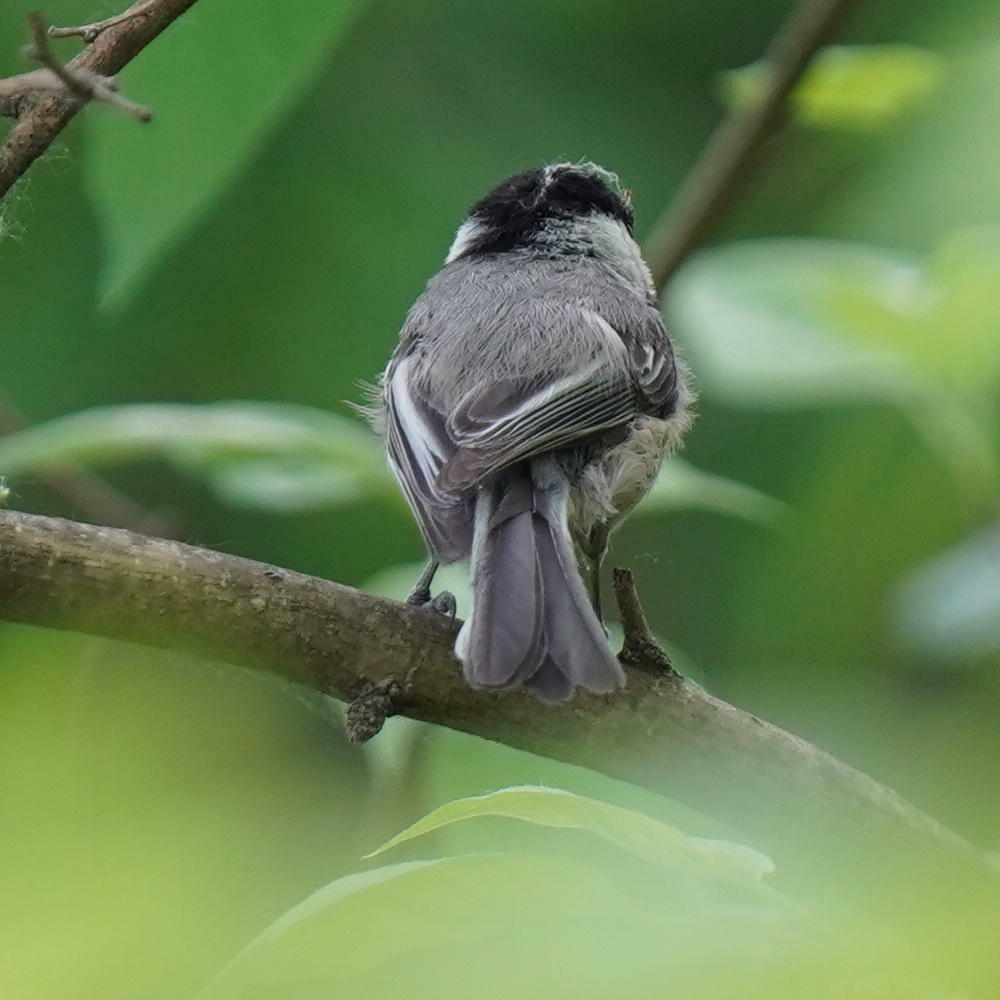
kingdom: Animalia
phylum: Chordata
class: Aves
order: Passeriformes
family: Paridae
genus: Poecile
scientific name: Poecile atricapillus
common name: Black-capped chickadee
